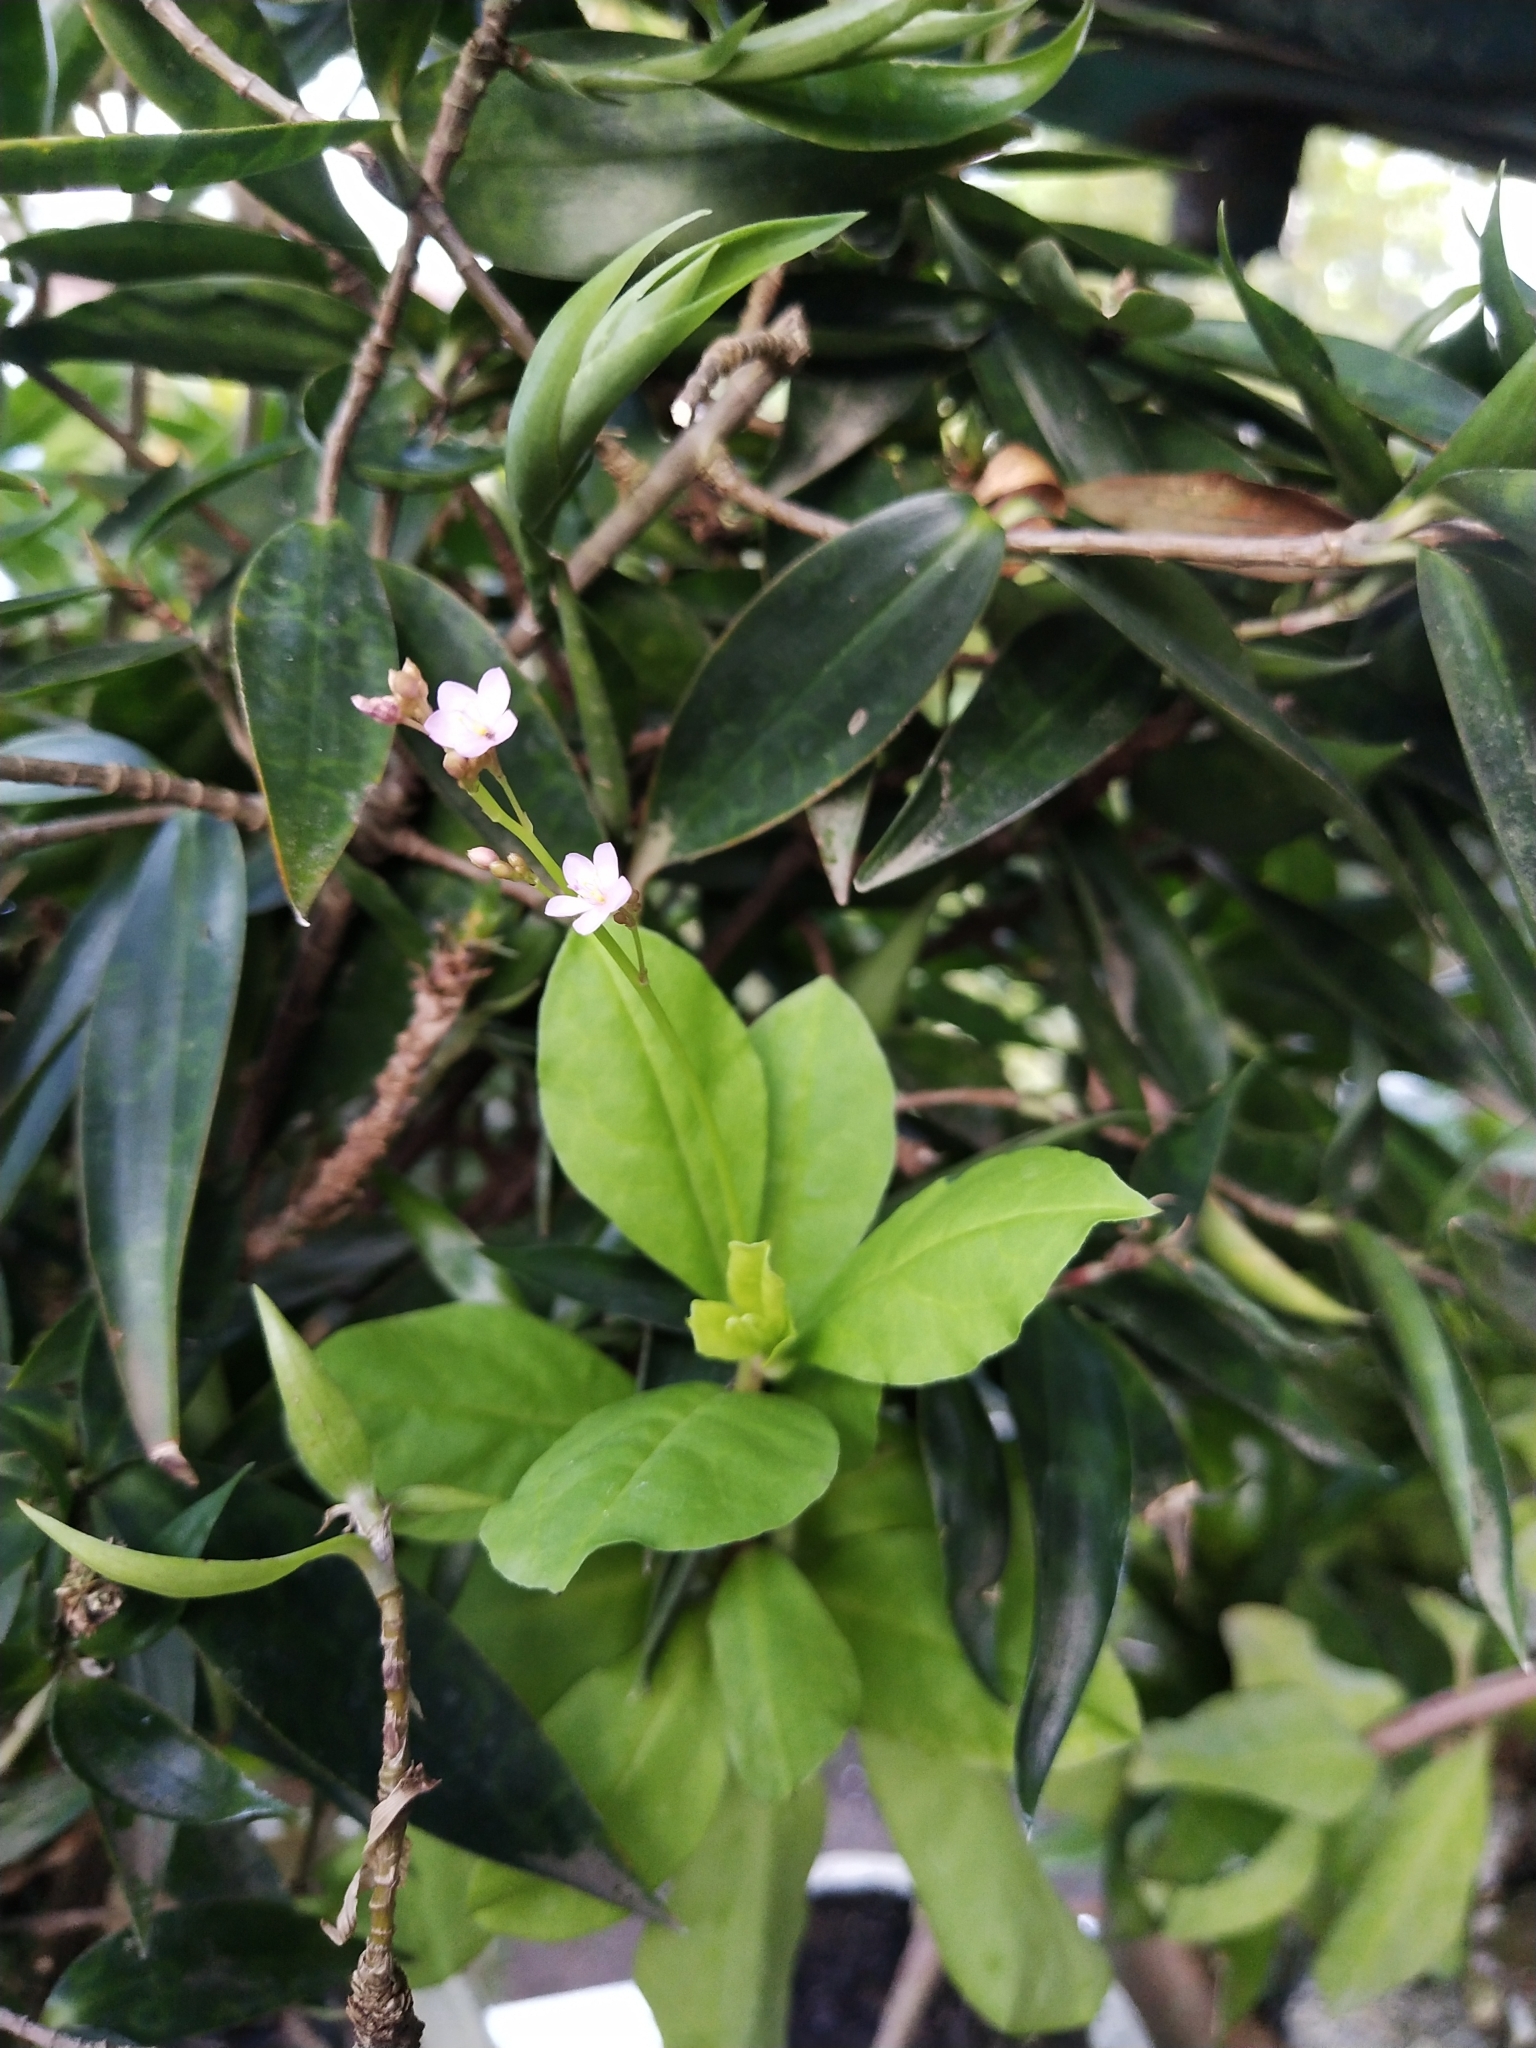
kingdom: Plantae
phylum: Tracheophyta
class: Magnoliopsida
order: Caryophyllales
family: Talinaceae
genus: Talinum
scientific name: Talinum paniculatum
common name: Jewels of opar
